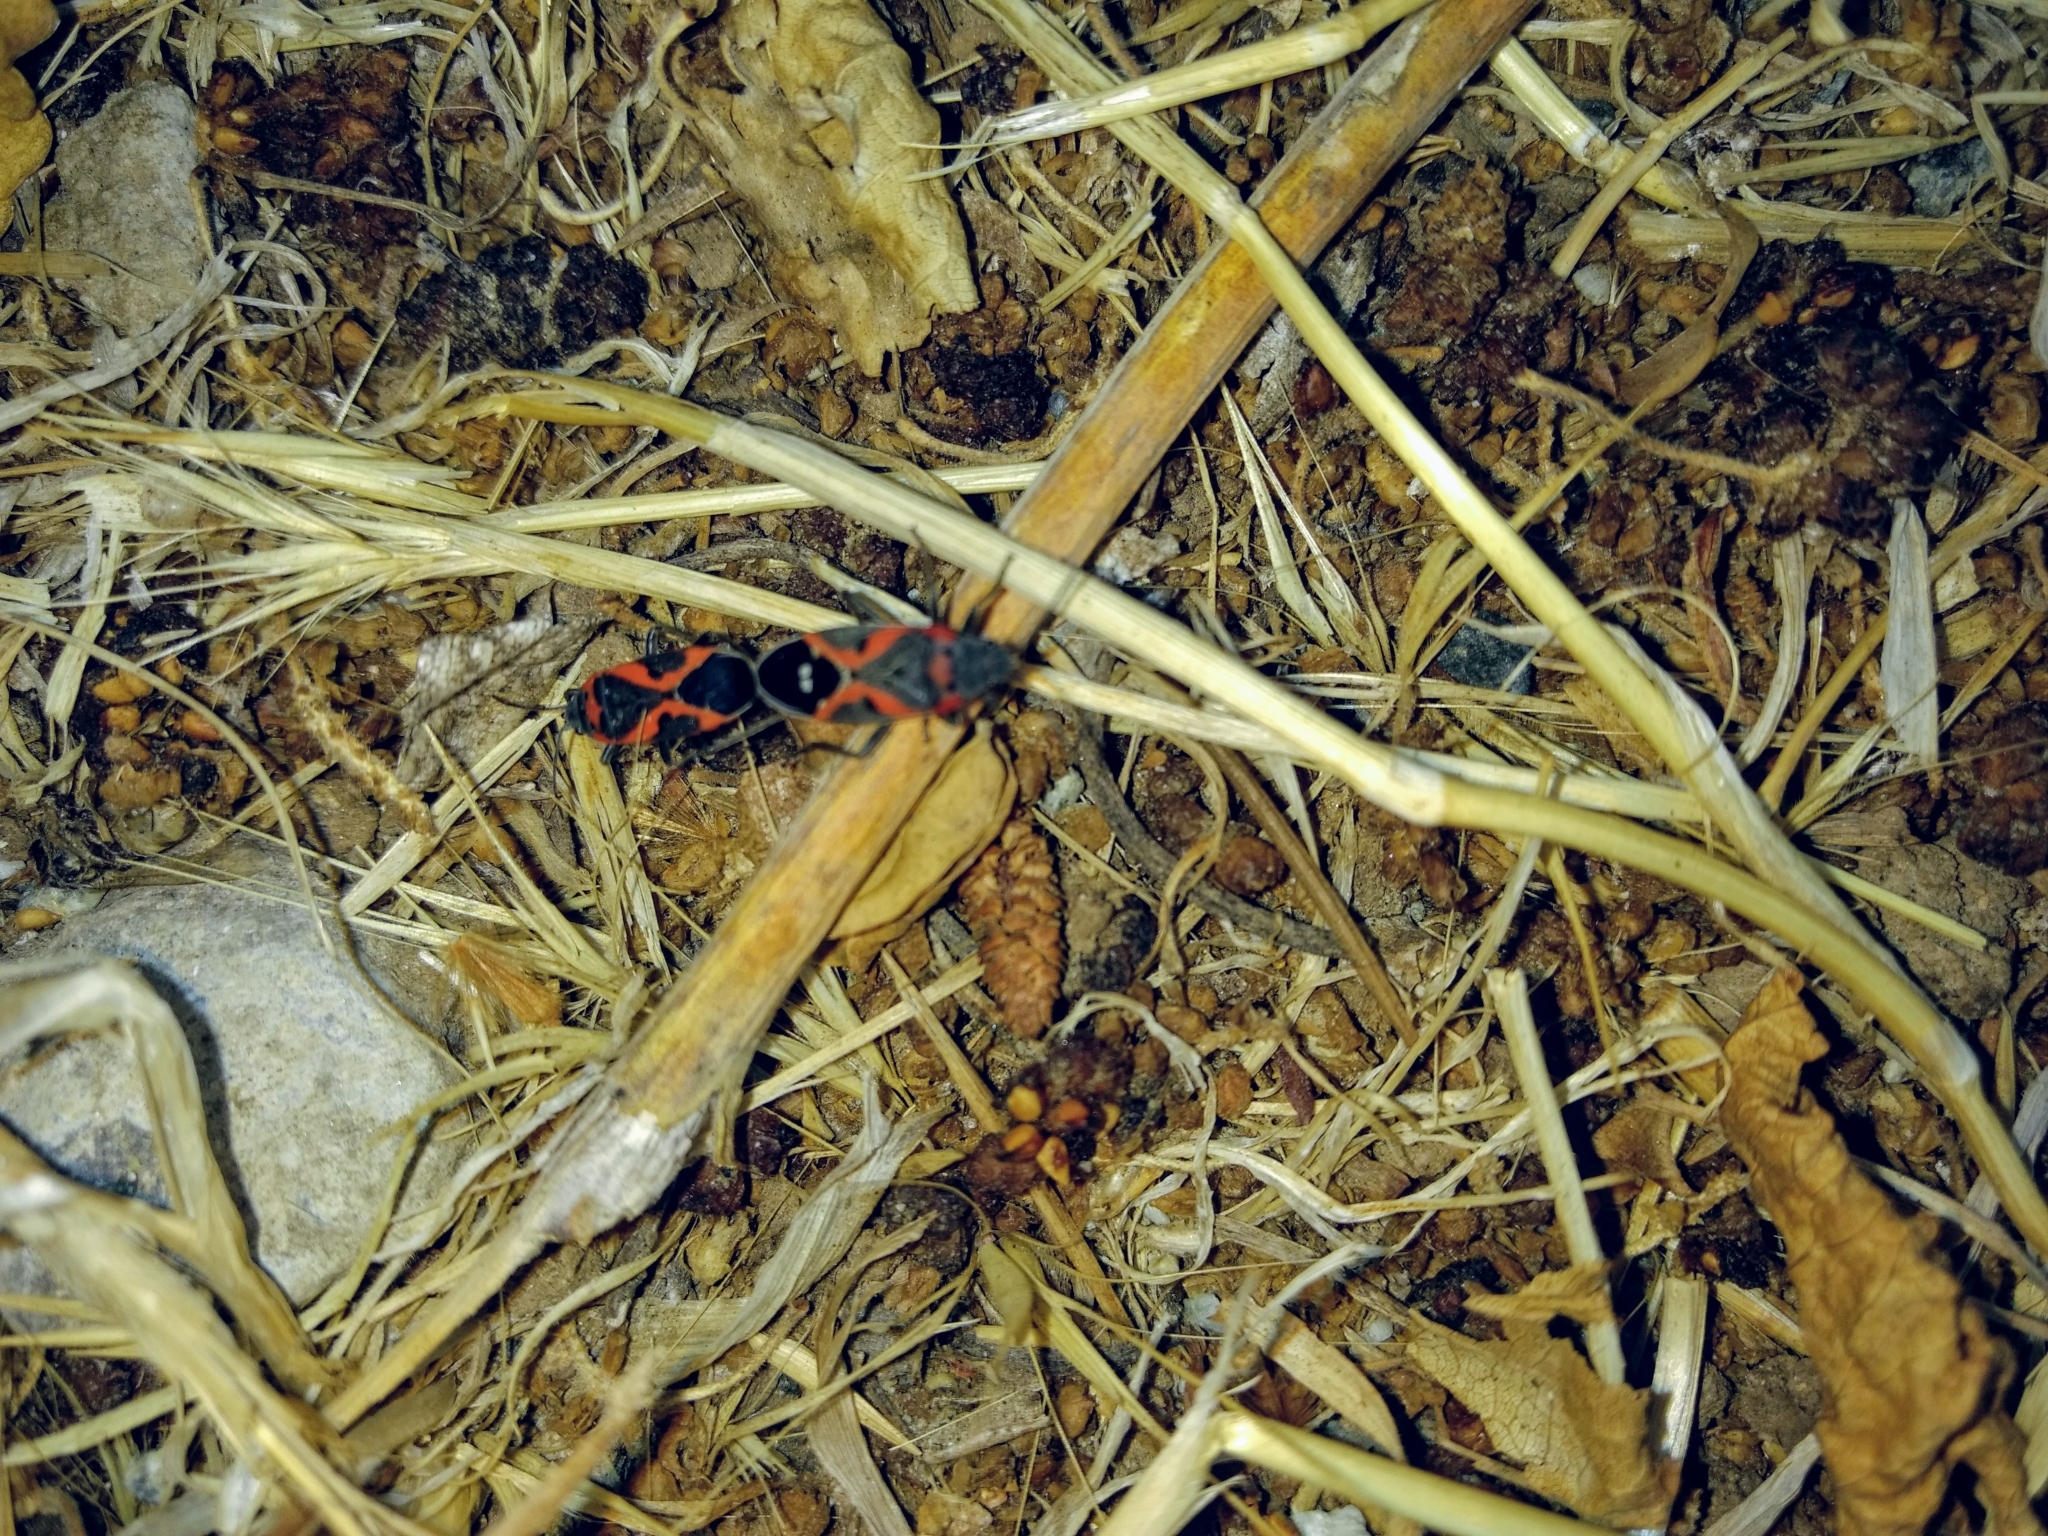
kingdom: Animalia
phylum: Arthropoda
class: Insecta
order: Hemiptera
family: Lygaeidae
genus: Lygaeus
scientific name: Lygaeus kalmii
